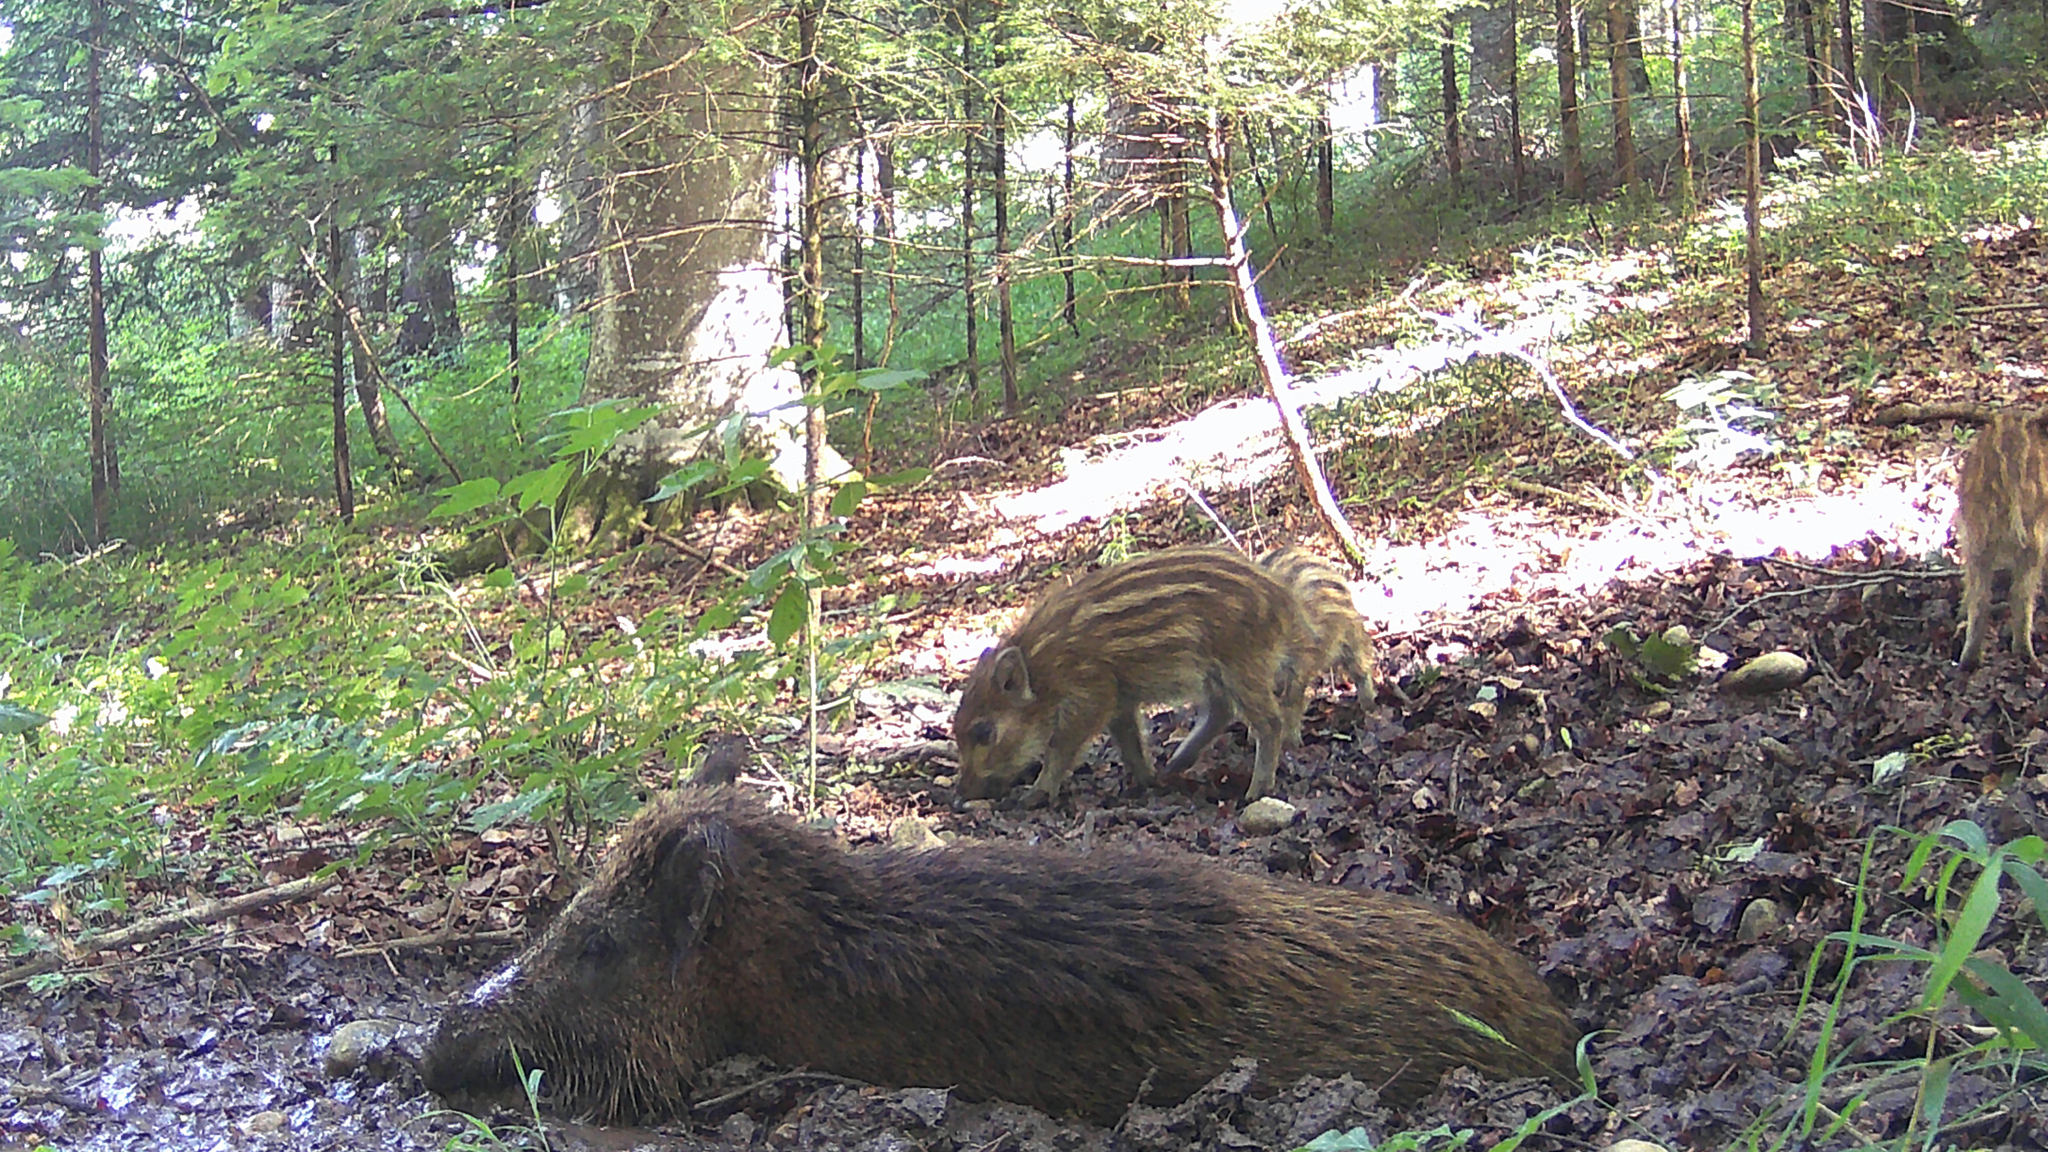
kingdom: Animalia
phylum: Chordata
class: Mammalia
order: Artiodactyla
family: Suidae
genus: Sus
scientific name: Sus scrofa
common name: Wild boar
